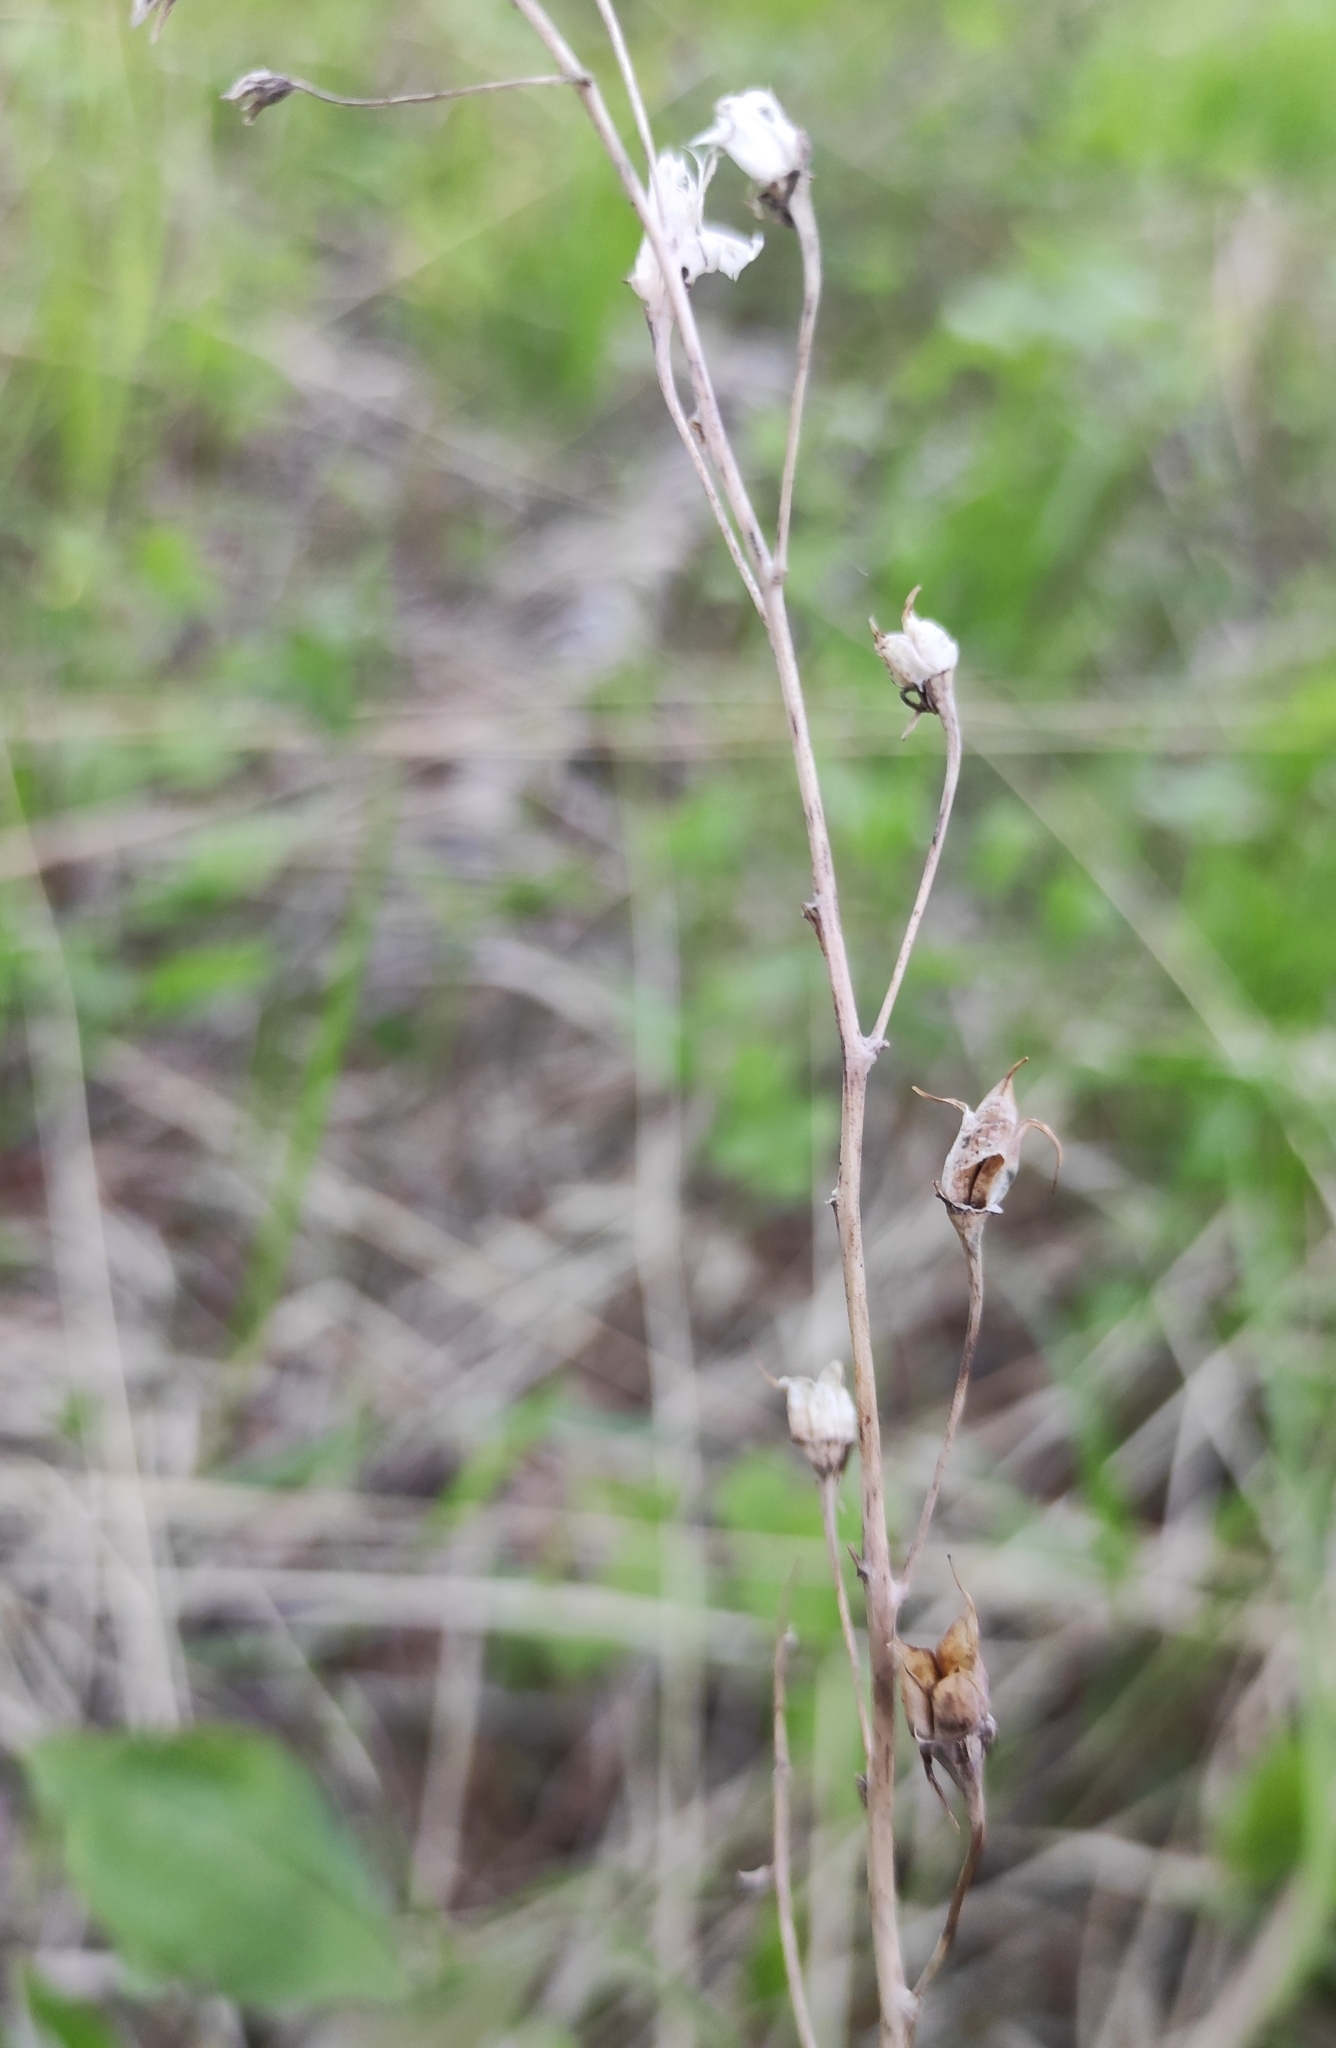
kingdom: Plantae
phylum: Tracheophyta
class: Liliopsida
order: Liliales
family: Melanthiaceae
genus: Anticlea
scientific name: Anticlea sibirica
